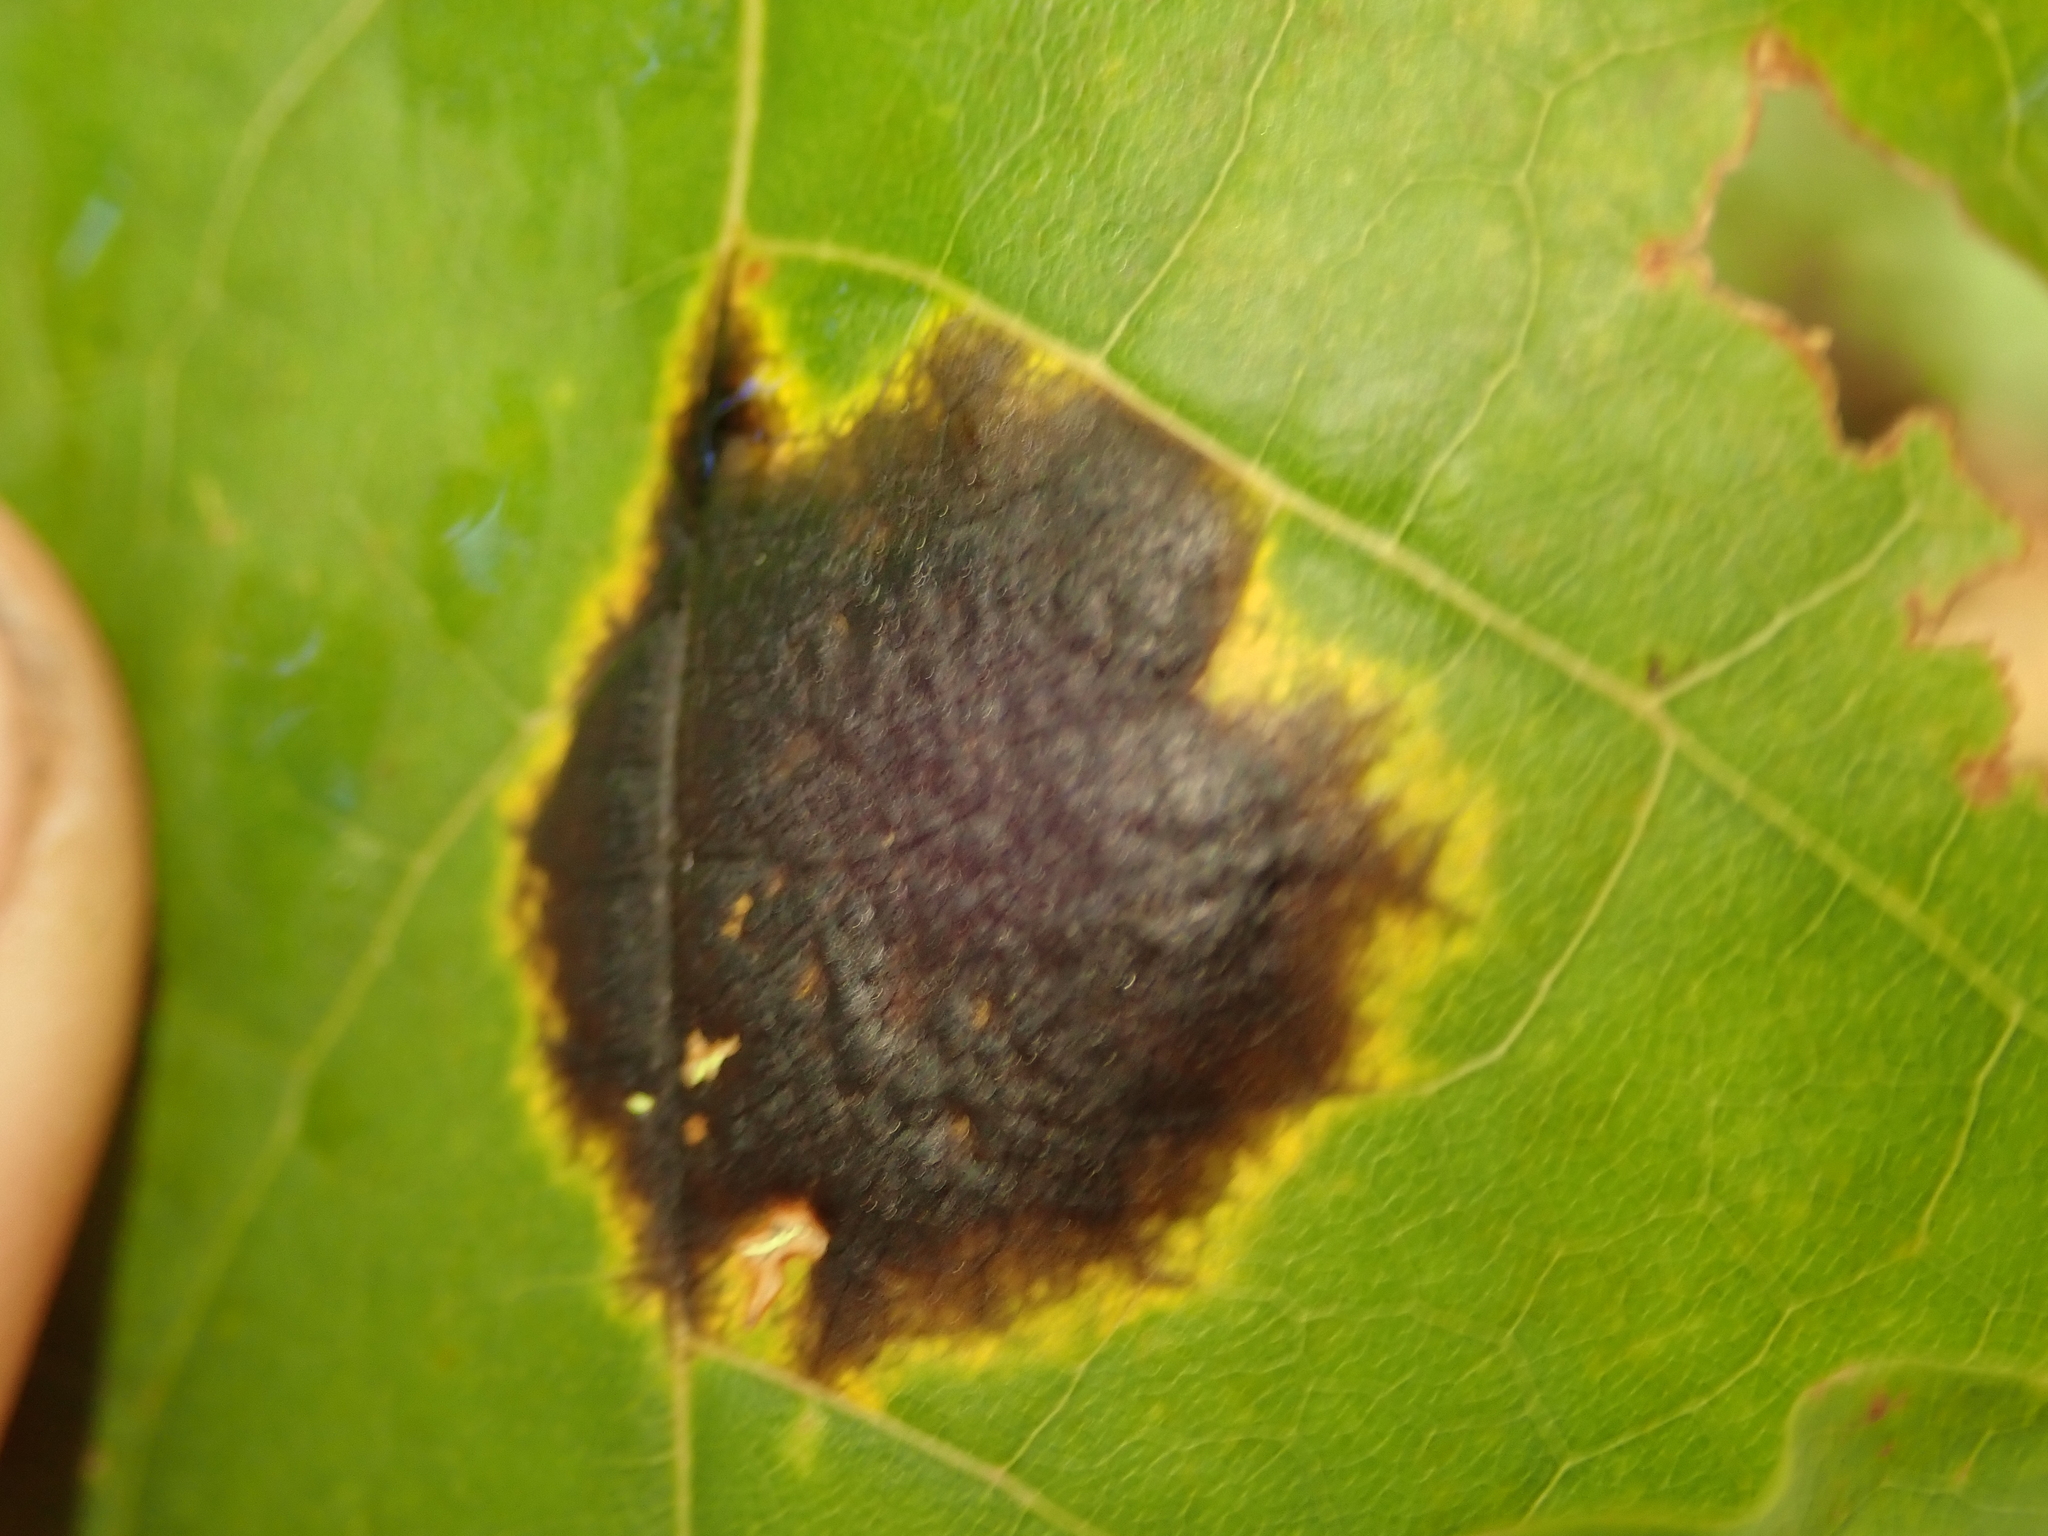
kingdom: Fungi
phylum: Ascomycota
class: Leotiomycetes
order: Rhytismatales
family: Rhytismataceae
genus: Rhytisma
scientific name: Rhytisma acerinum
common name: European tar spot
